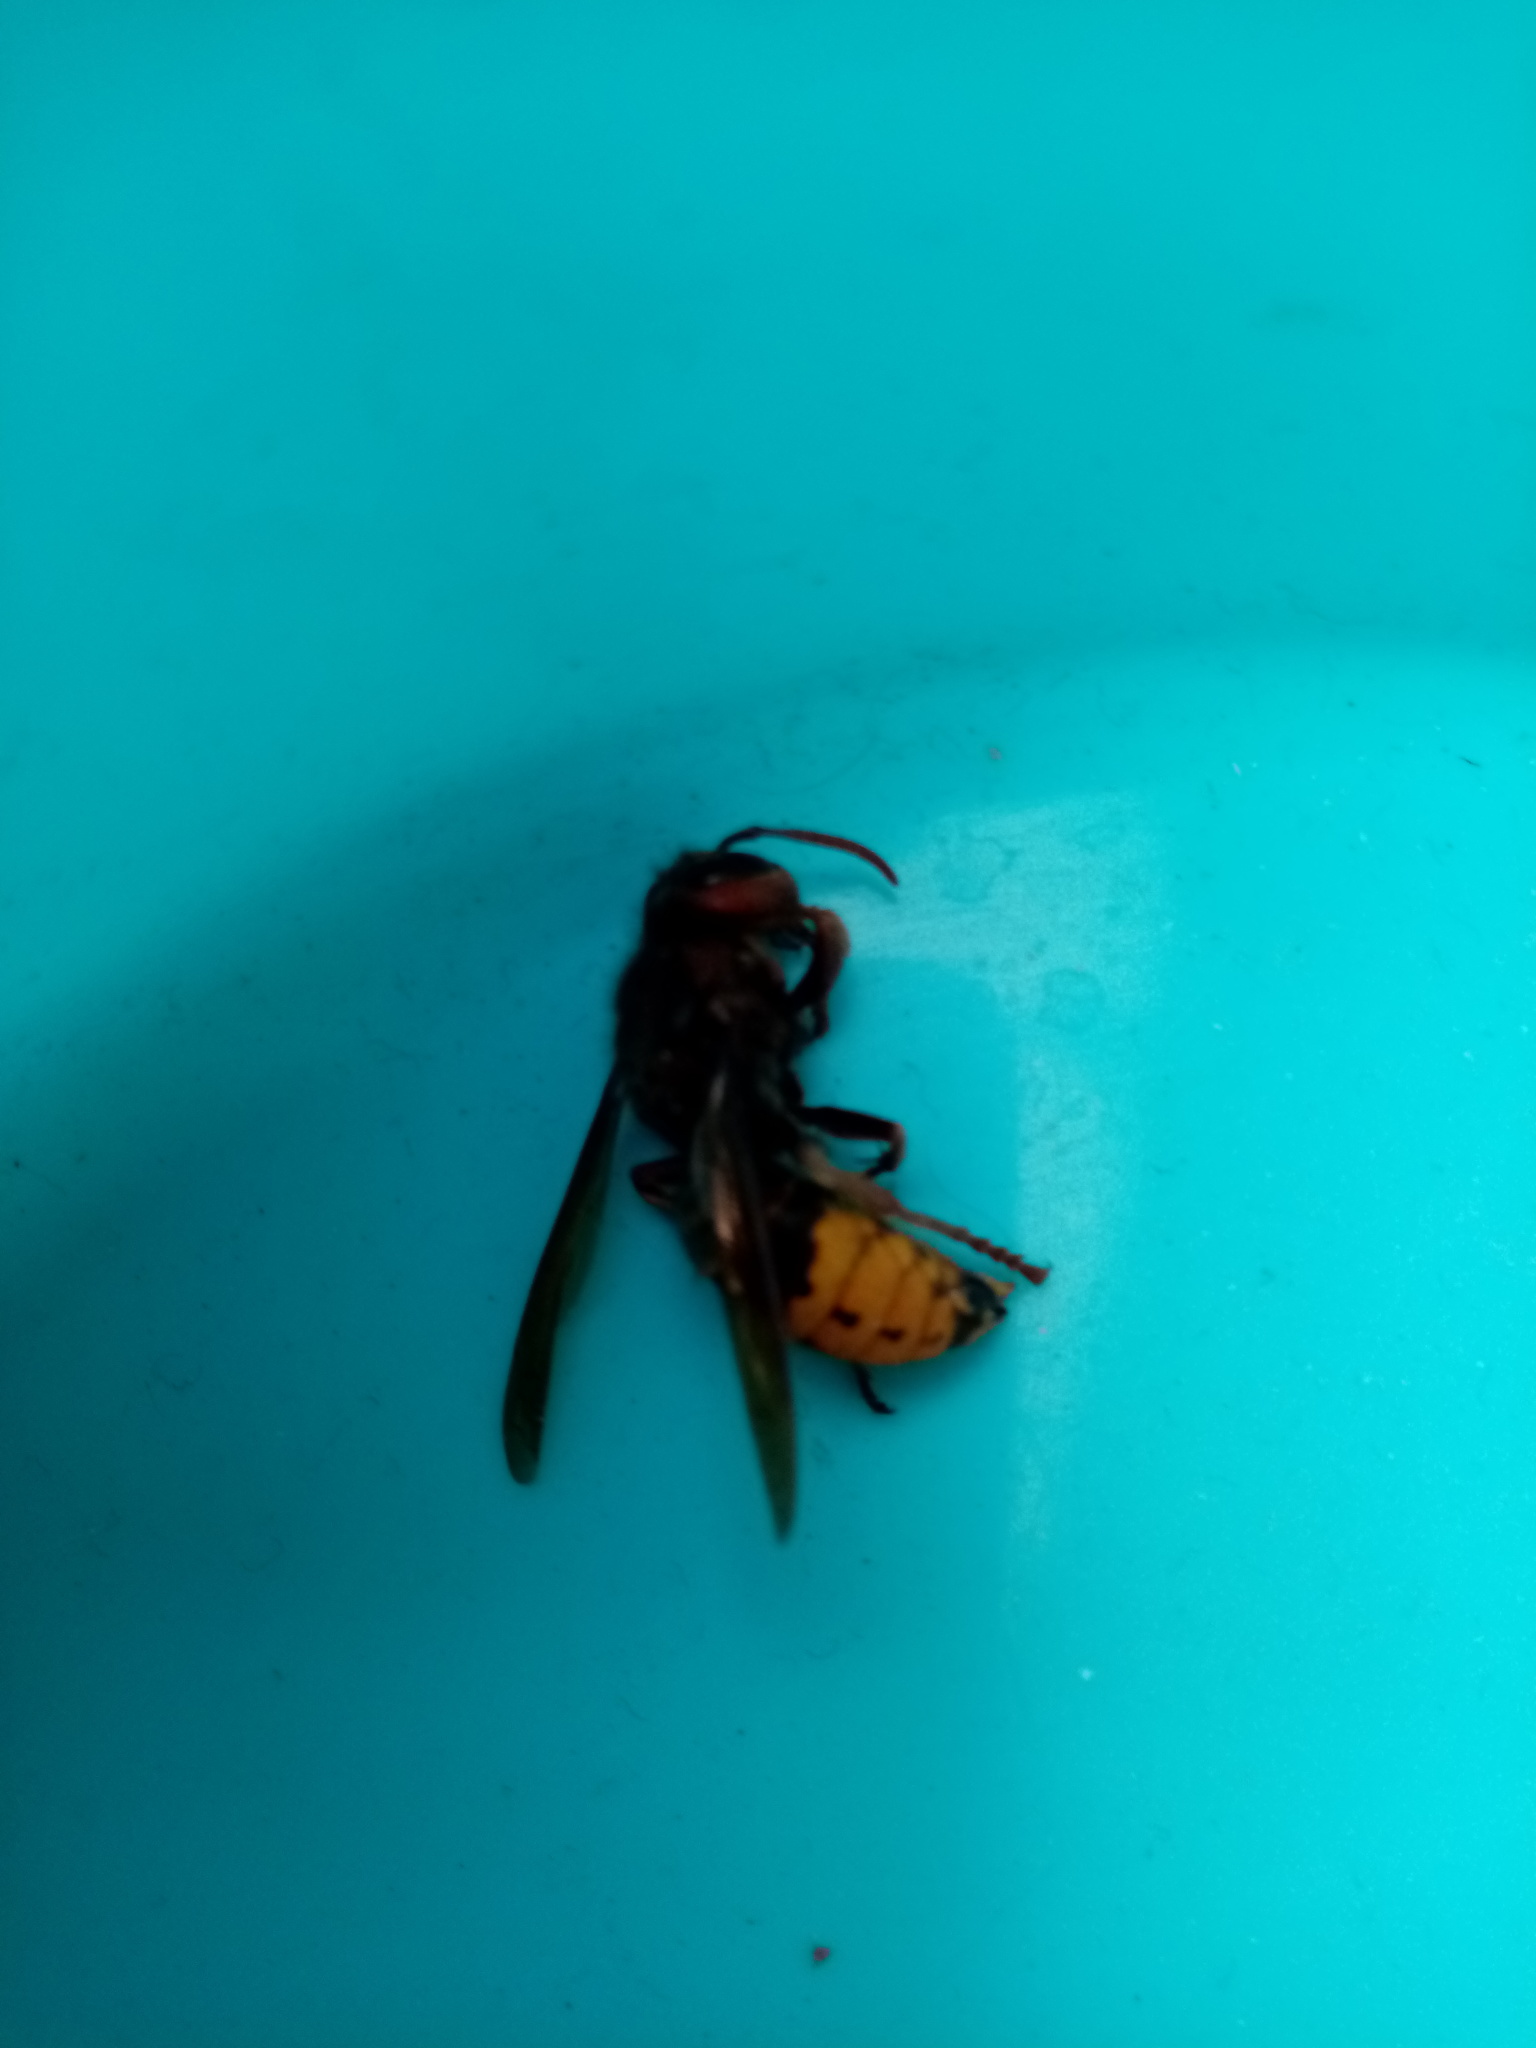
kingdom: Animalia
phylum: Arthropoda
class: Insecta
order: Hymenoptera
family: Vespidae
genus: Vespa
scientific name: Vespa crabro
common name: Hornet
